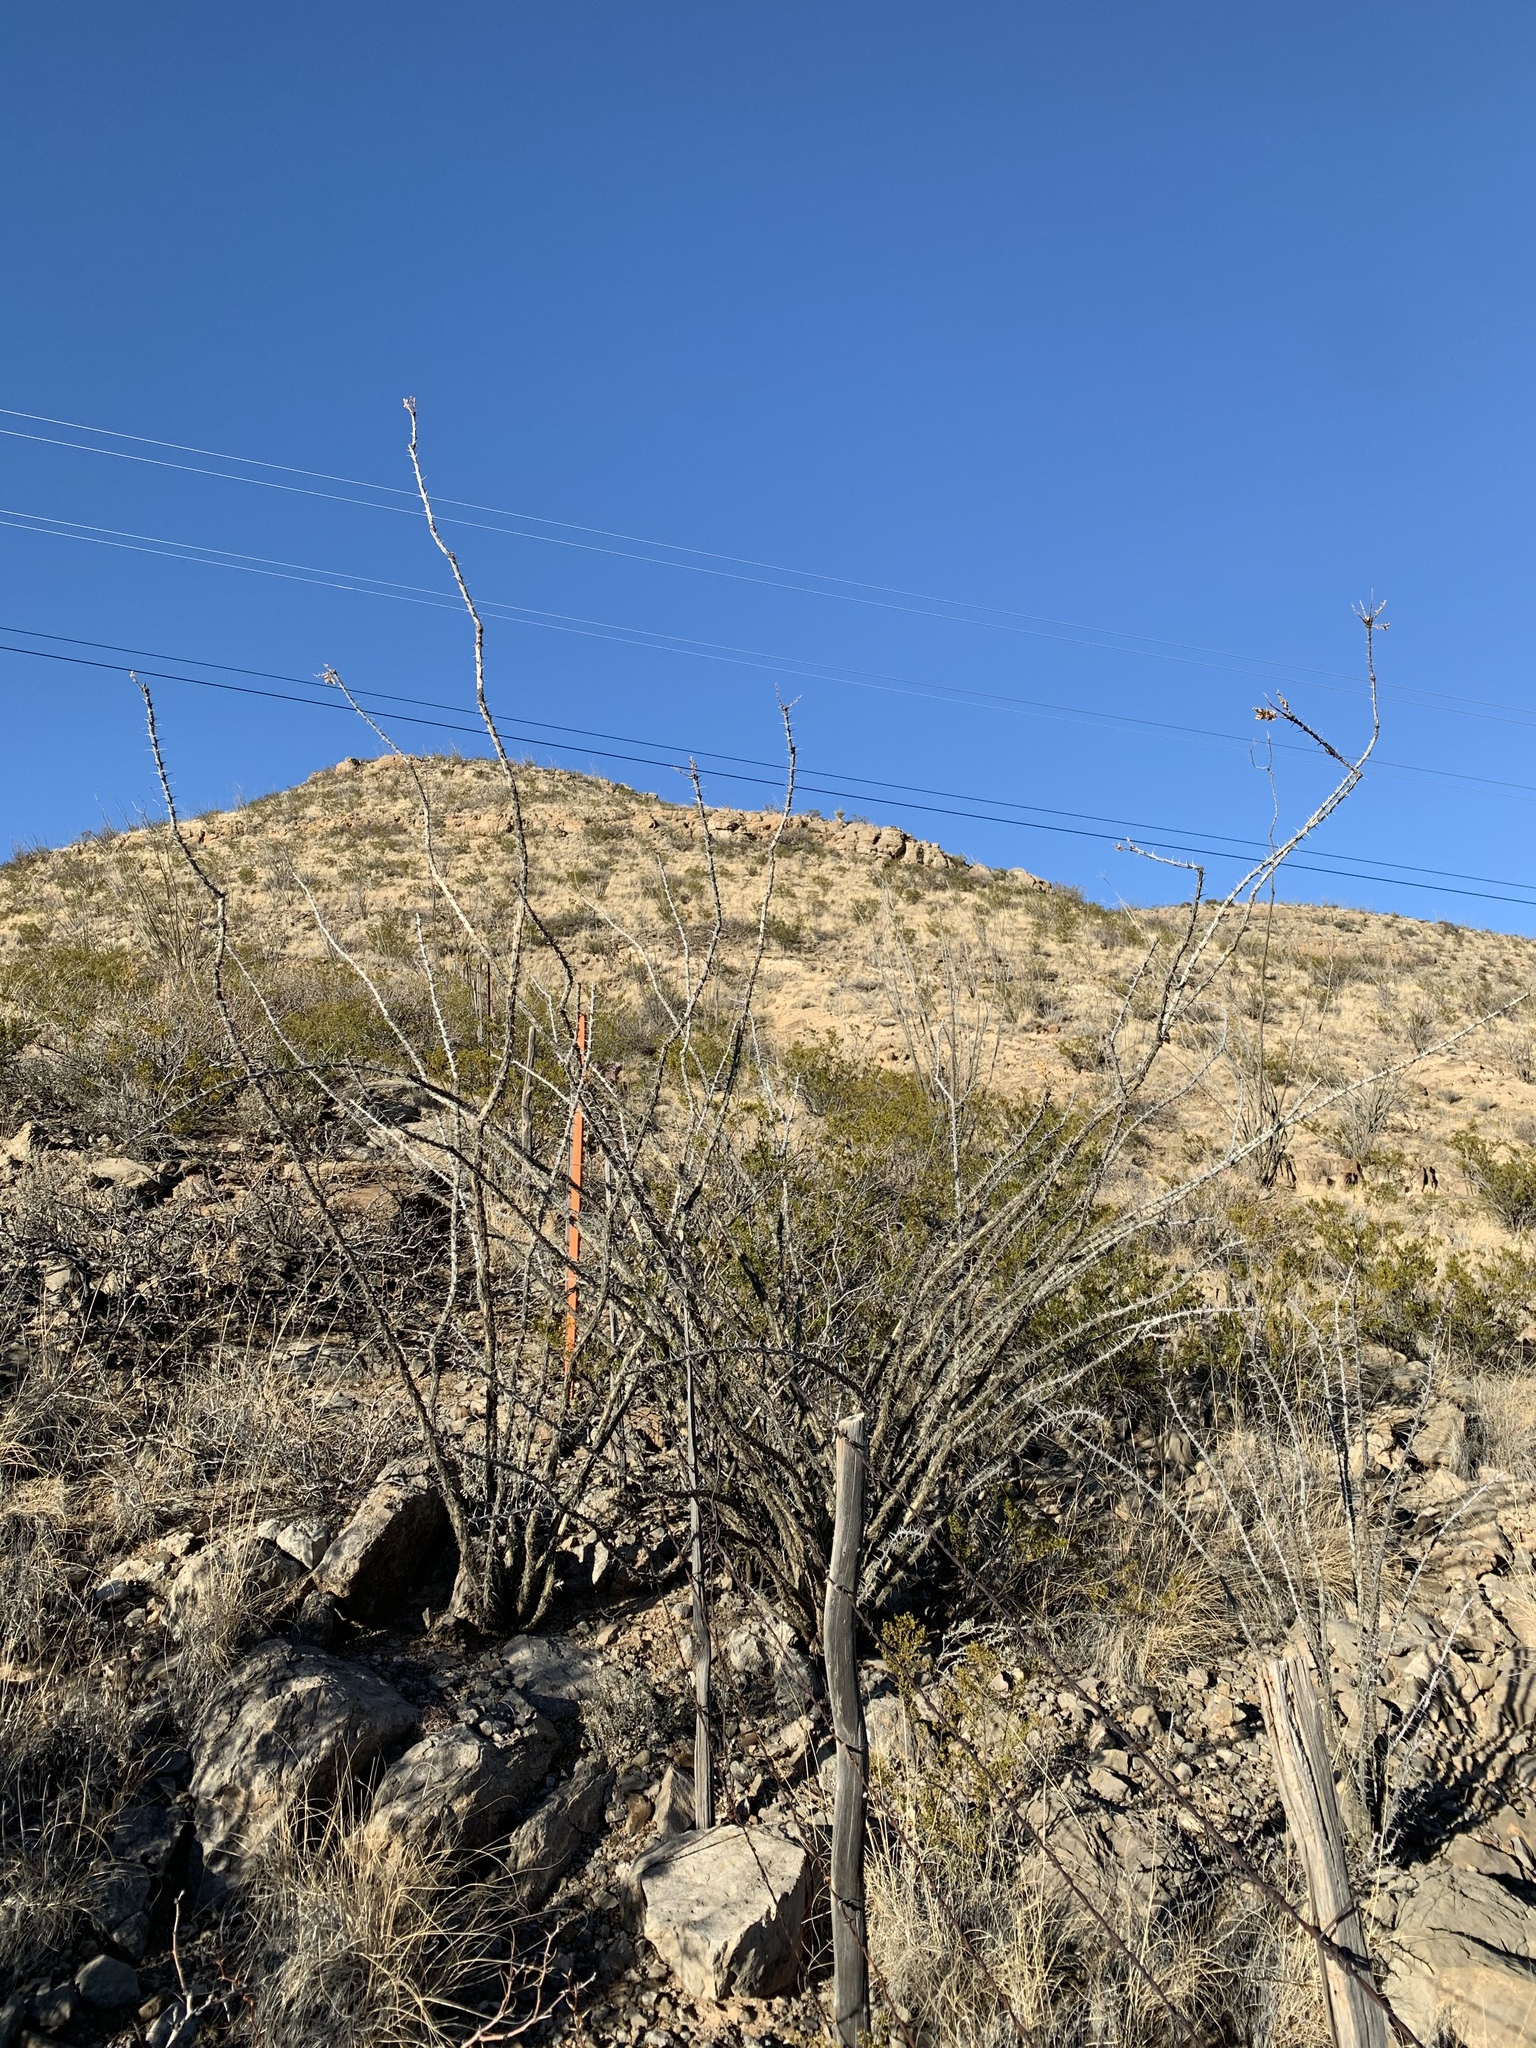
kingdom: Plantae
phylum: Tracheophyta
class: Magnoliopsida
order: Ericales
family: Fouquieriaceae
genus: Fouquieria
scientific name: Fouquieria splendens
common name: Vine-cactus
